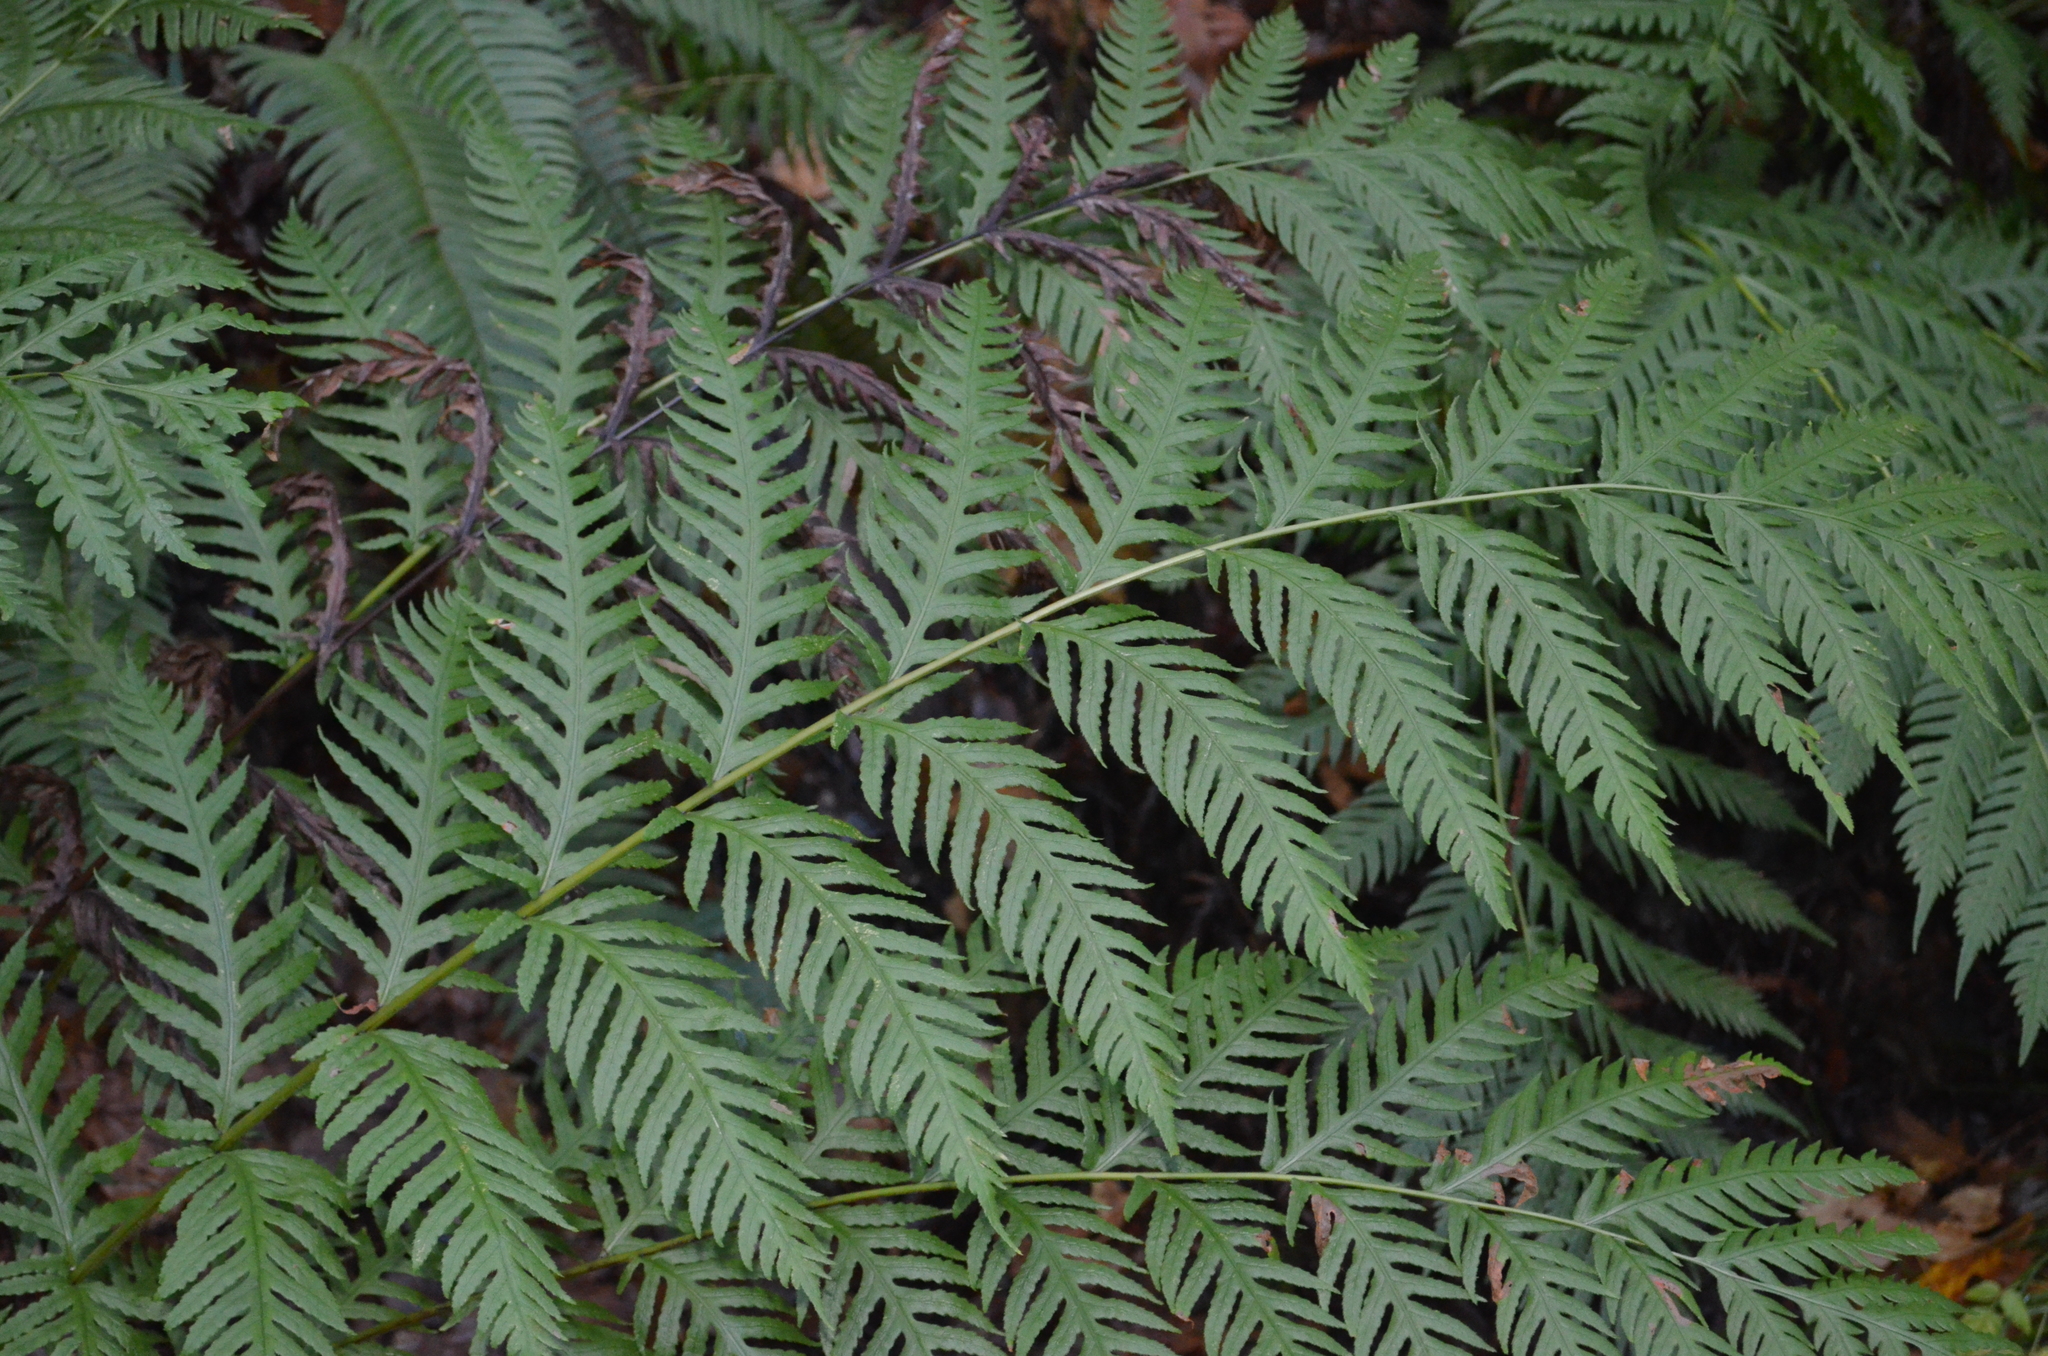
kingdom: Plantae
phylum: Tracheophyta
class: Polypodiopsida
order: Polypodiales
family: Blechnaceae
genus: Woodwardia
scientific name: Woodwardia fimbriata
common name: Giant chain fern
